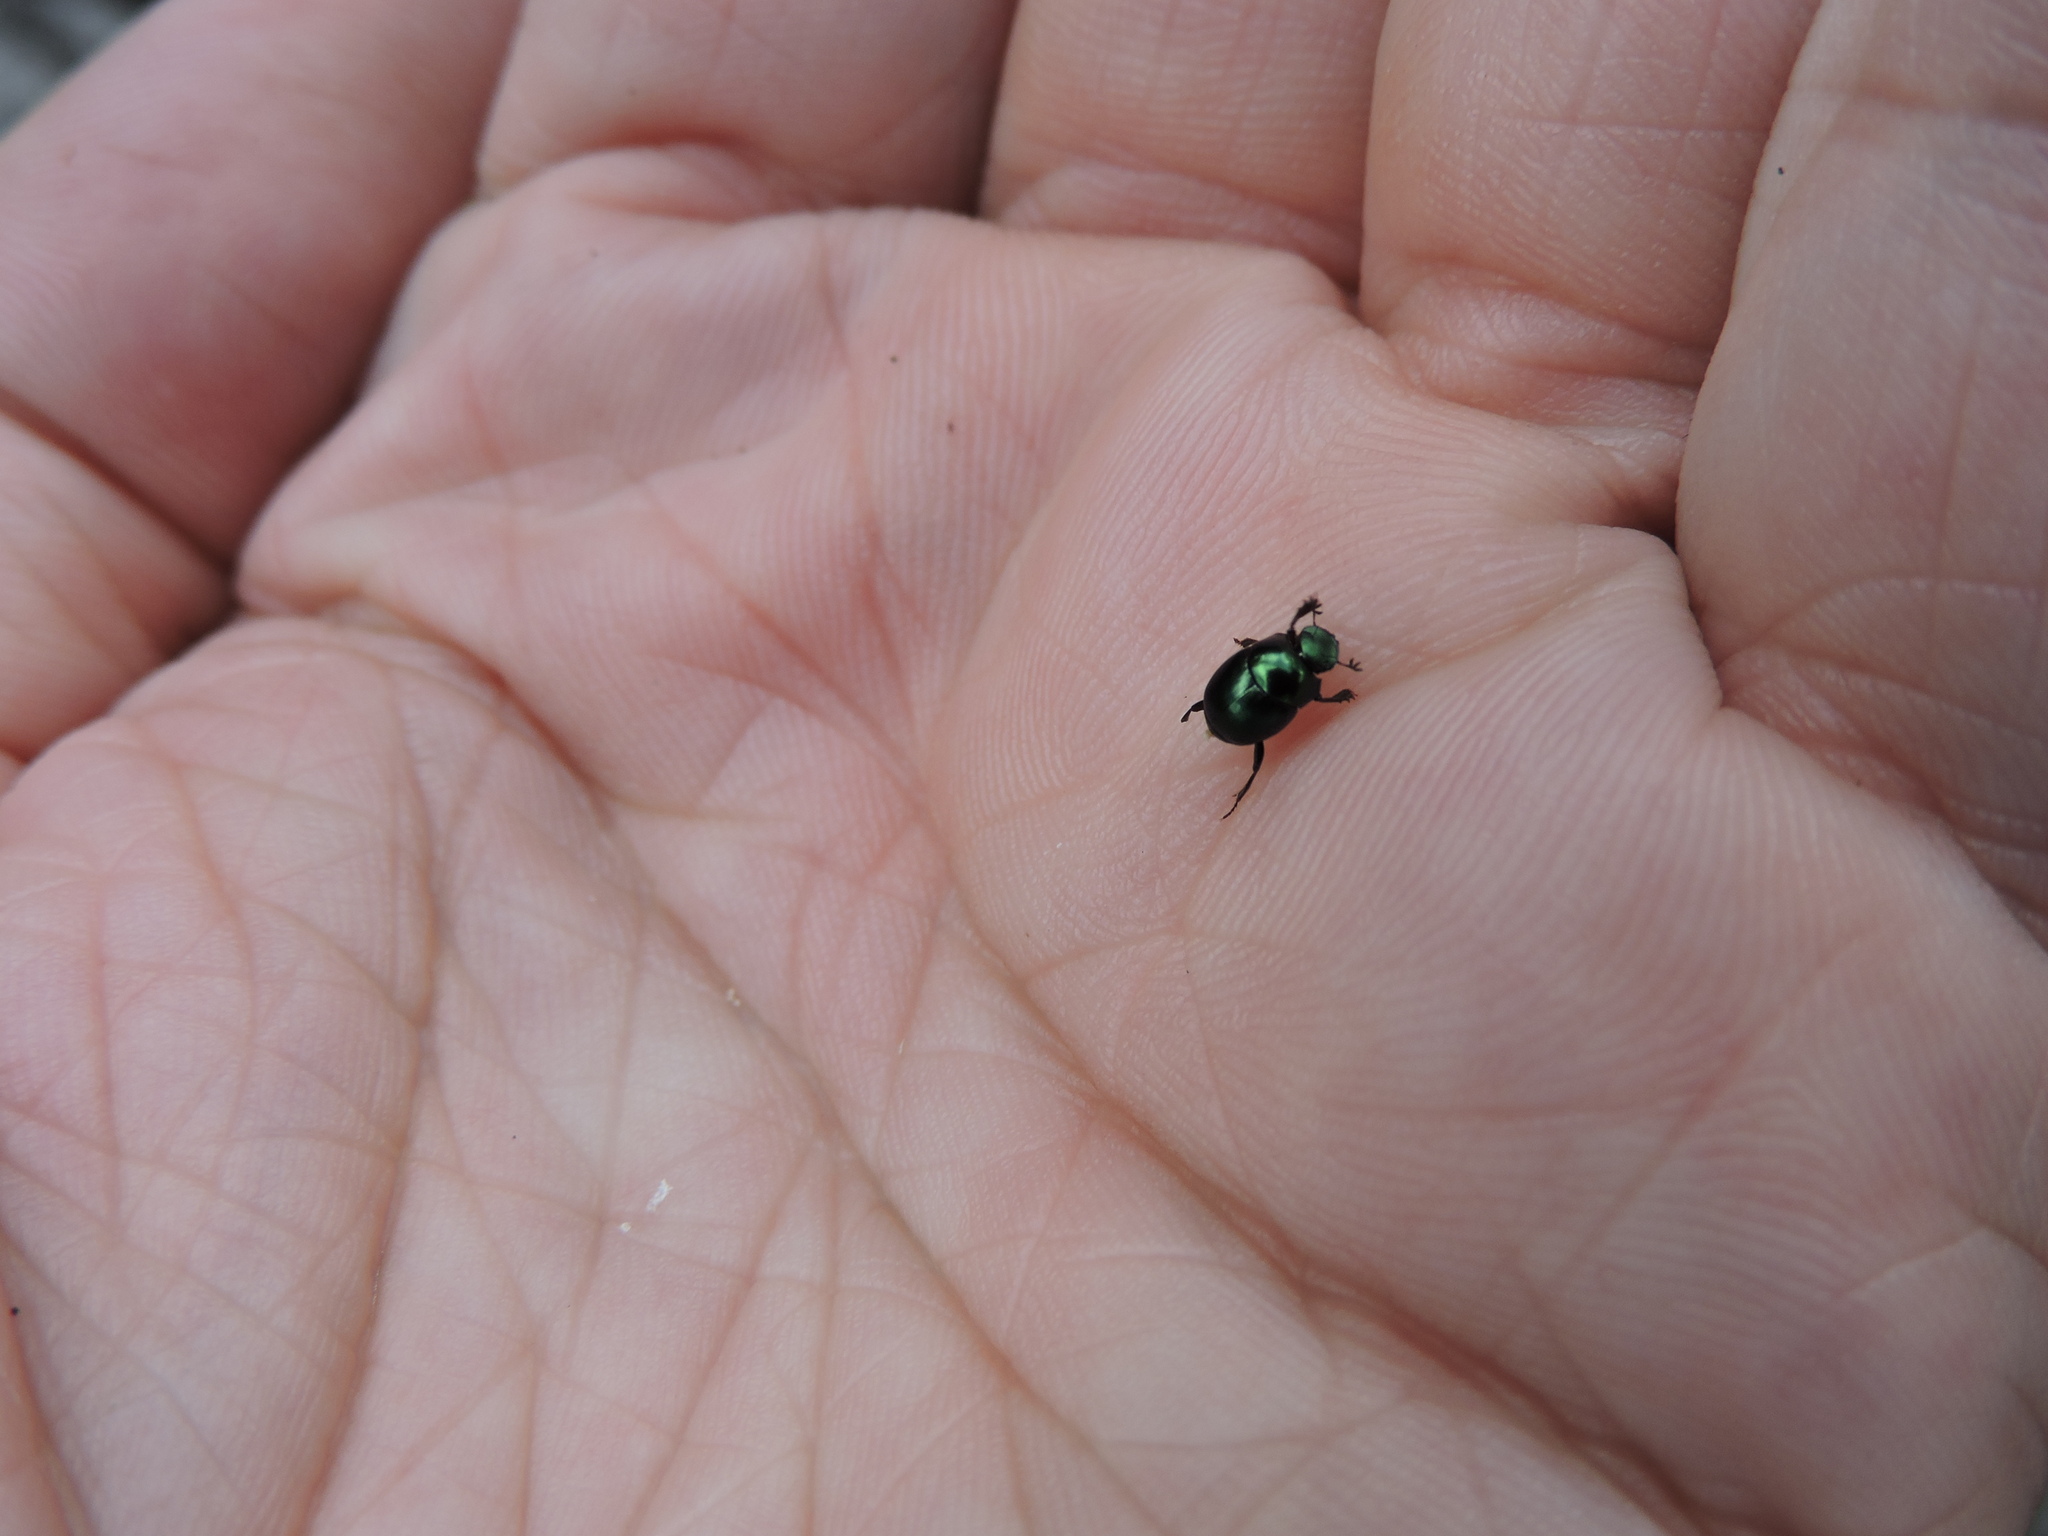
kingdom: Animalia
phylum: Arthropoda
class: Insecta
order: Coleoptera
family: Scarabaeidae
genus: Canthon
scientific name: Canthon viridis
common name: Tumblebug
